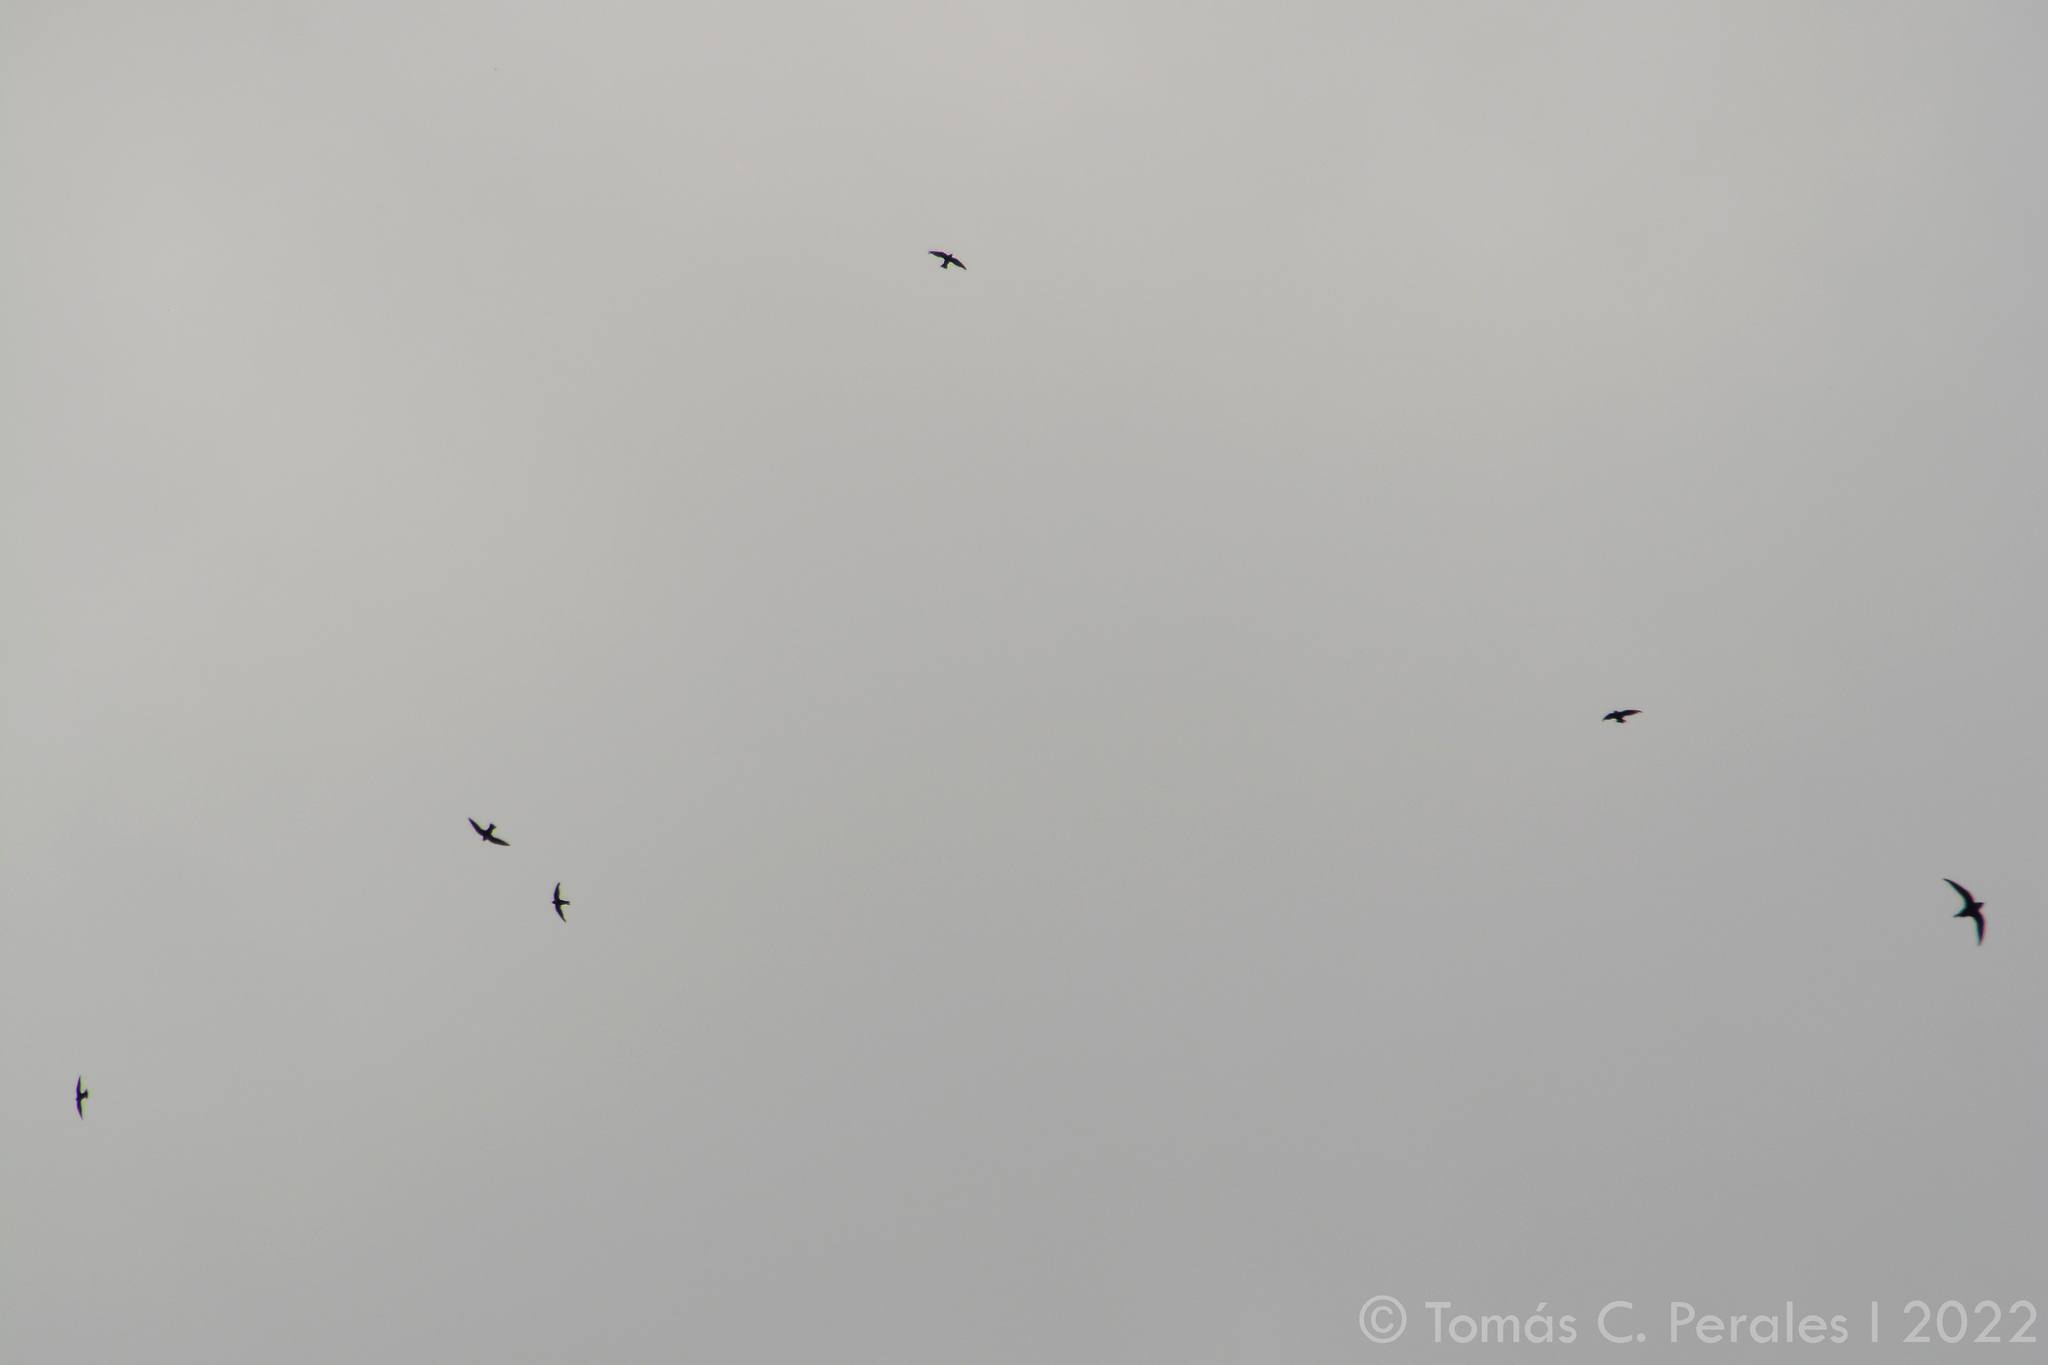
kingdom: Animalia
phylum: Chordata
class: Aves
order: Apodiformes
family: Apodidae
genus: Streptoprocne
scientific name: Streptoprocne zonaris
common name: White-collared swift
